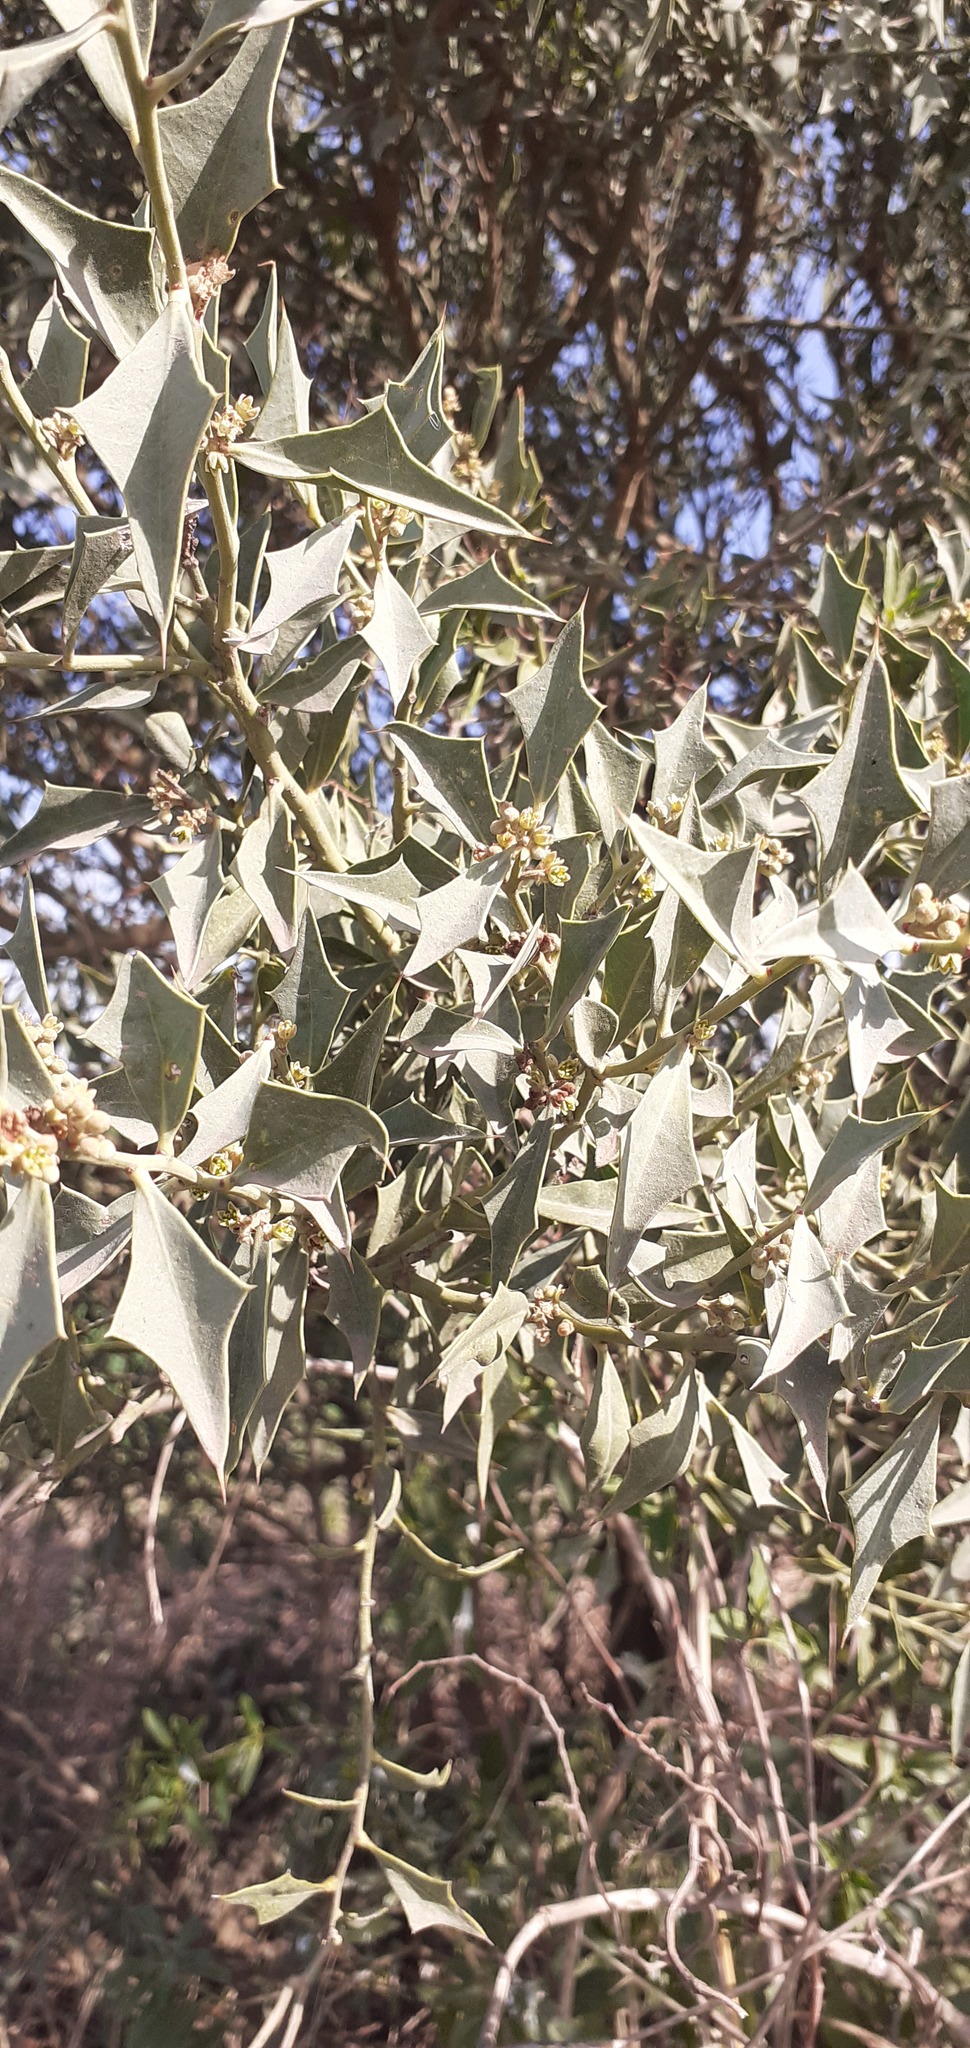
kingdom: Plantae
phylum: Tracheophyta
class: Magnoliopsida
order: Santalales
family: Cervantesiaceae
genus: Jodina
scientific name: Jodina rhombifolia
